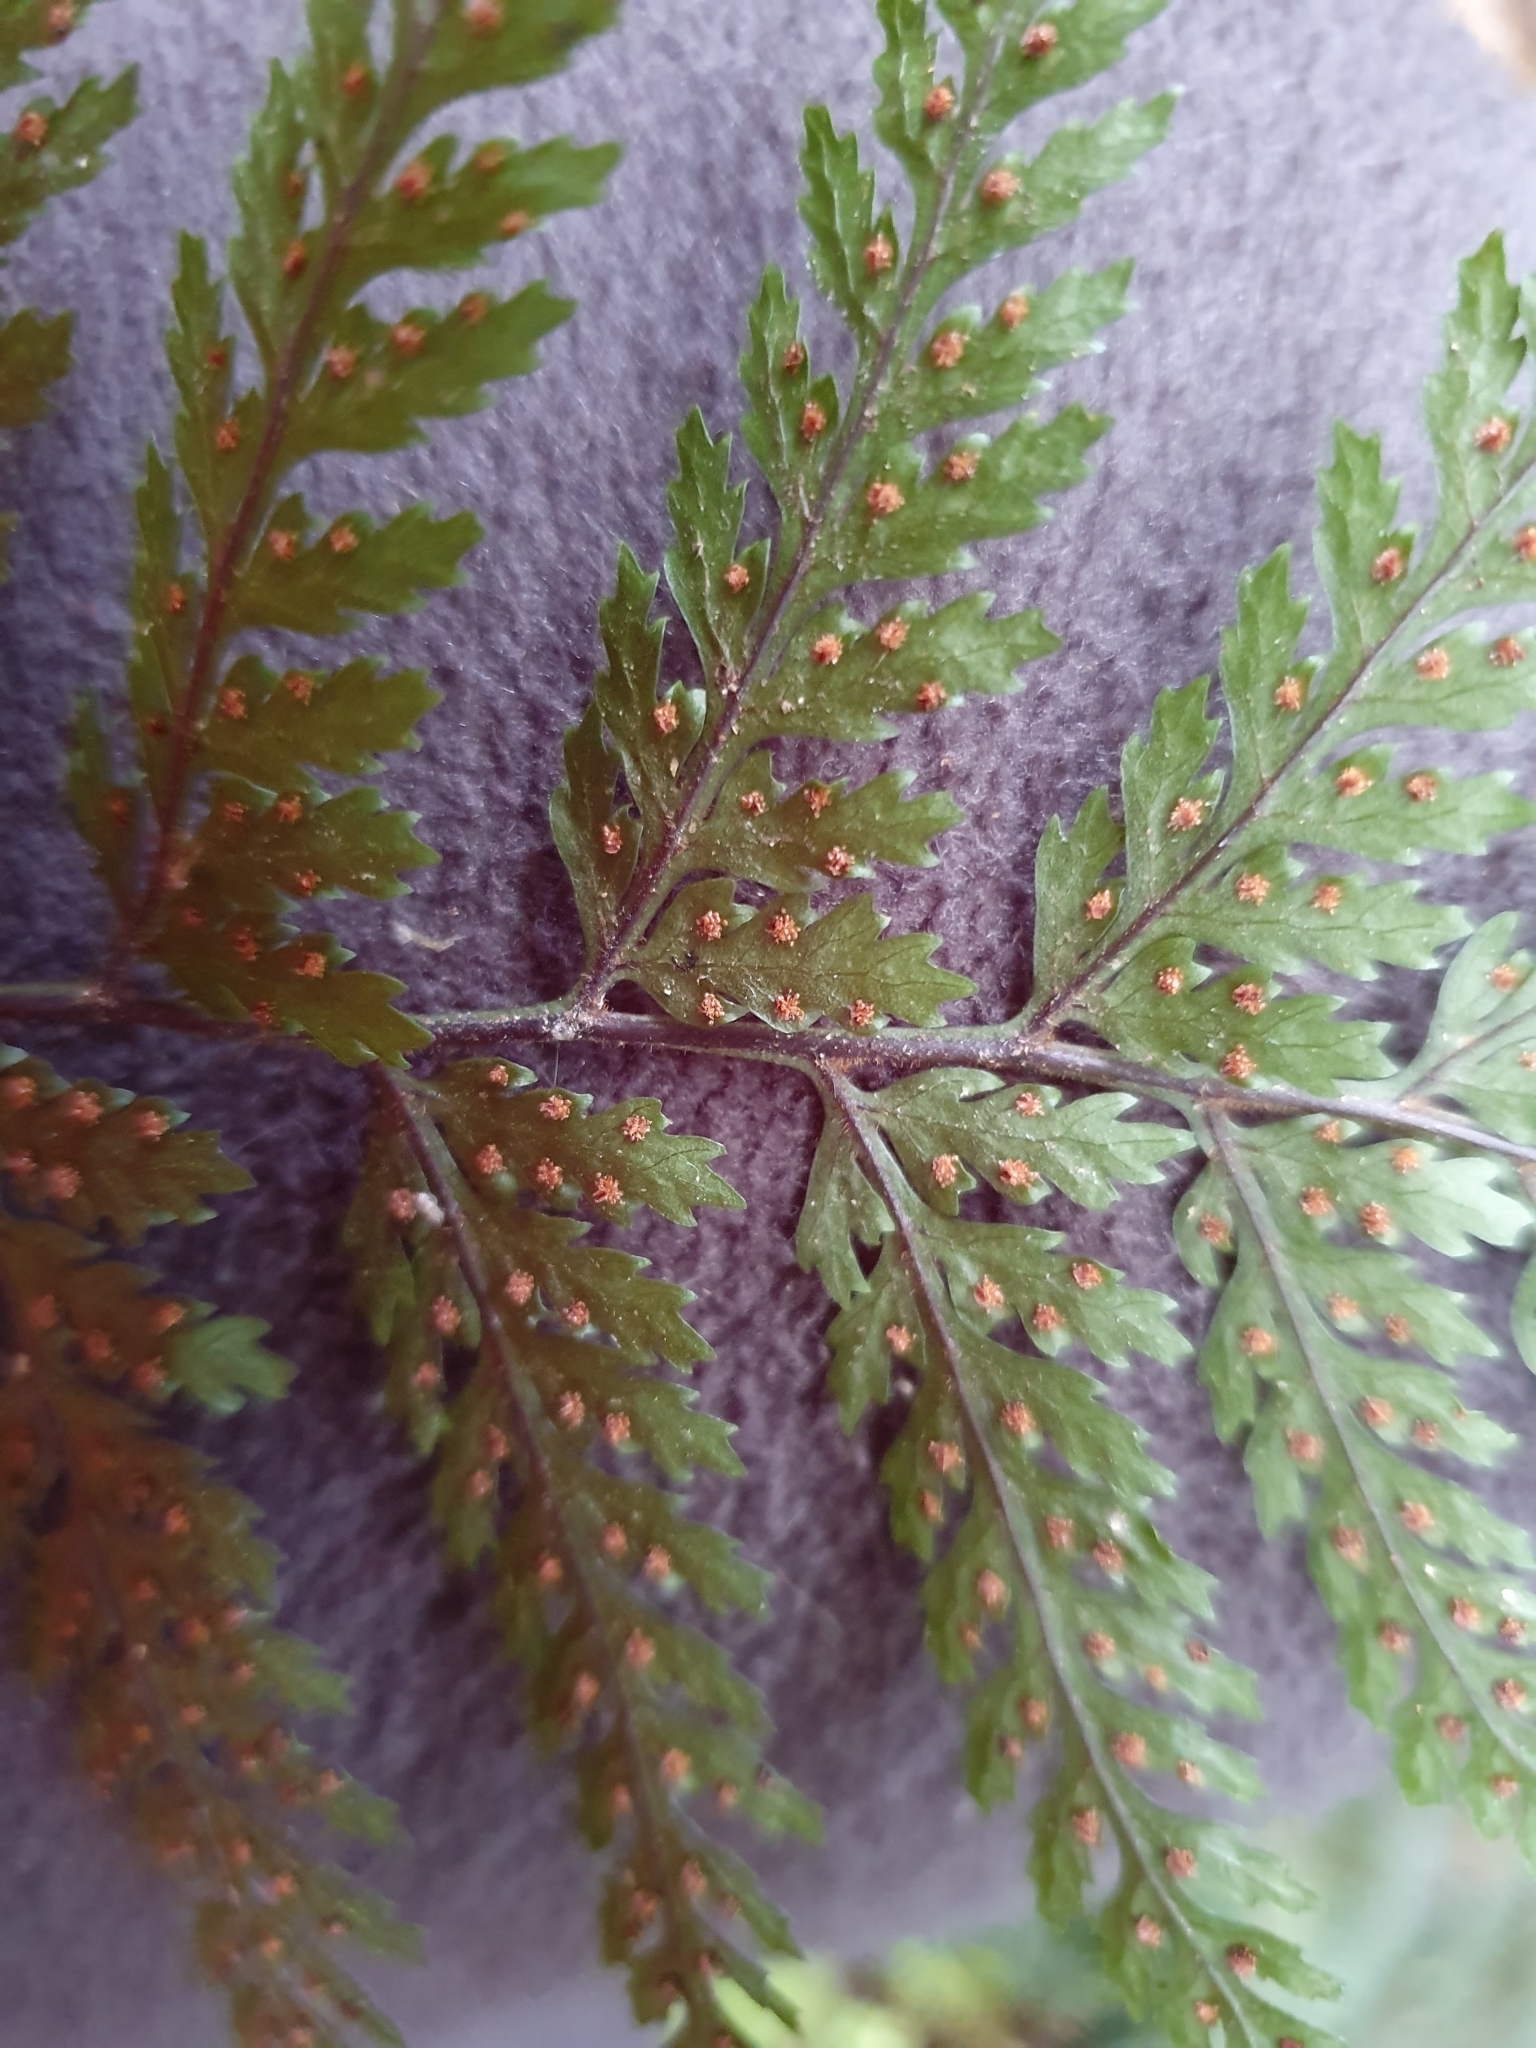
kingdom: Plantae
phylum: Tracheophyta
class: Polypodiopsida
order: Polypodiales
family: Dryopteridaceae
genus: Parapolystichum
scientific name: Parapolystichum glabellum
